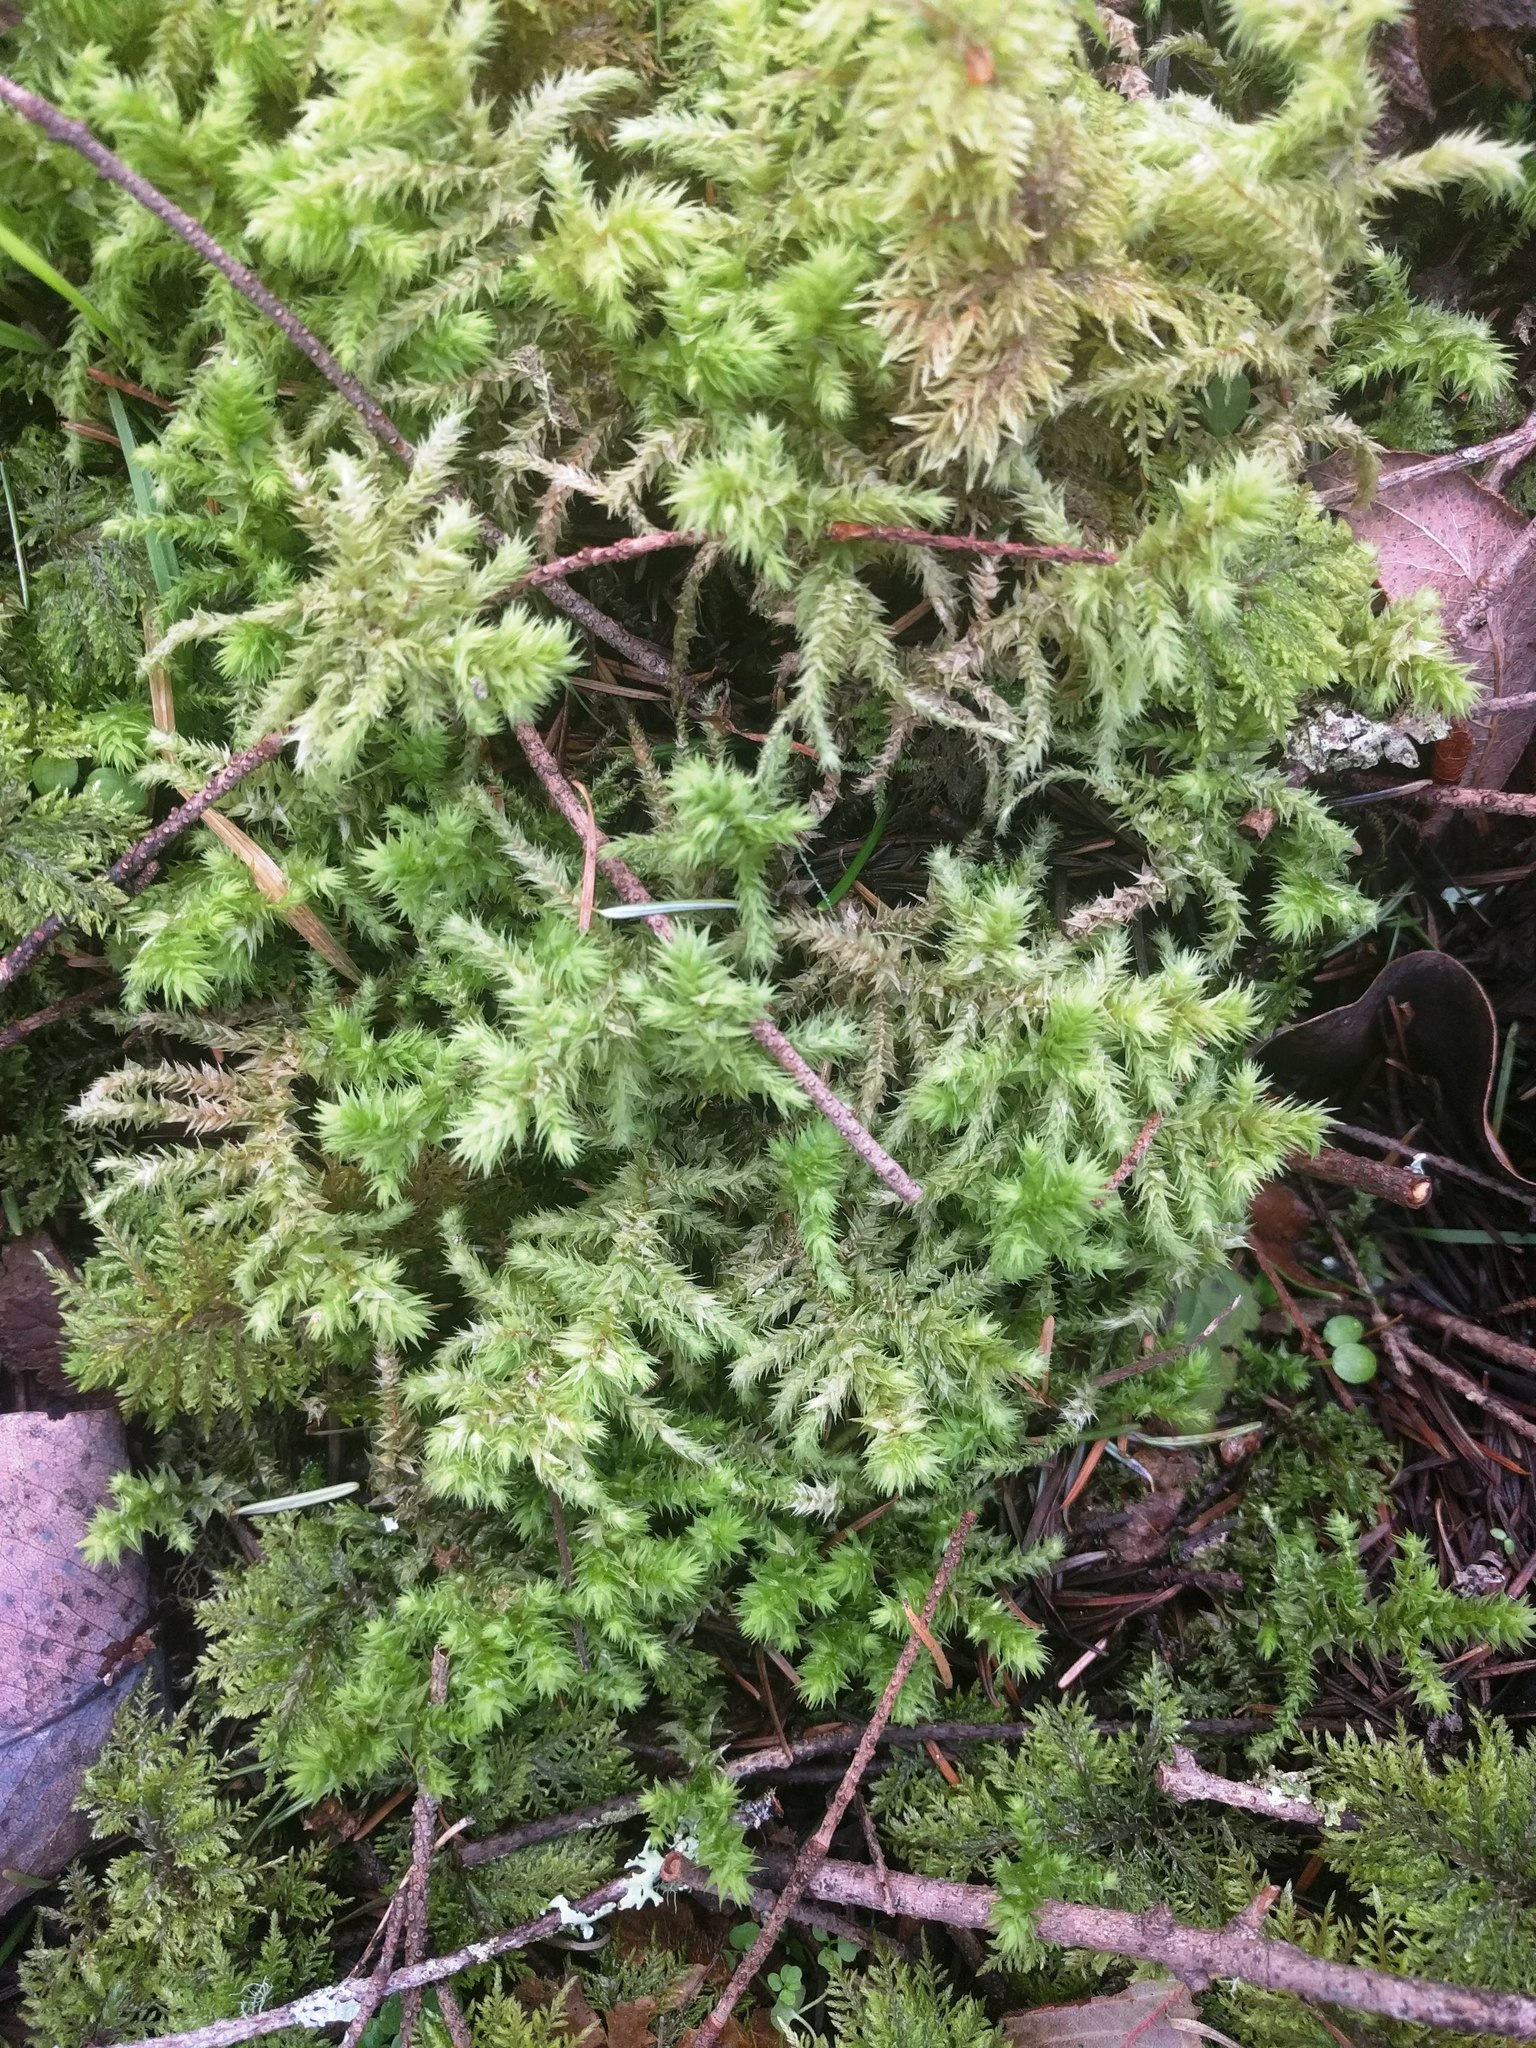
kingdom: Plantae
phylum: Bryophyta
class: Bryopsida
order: Hypnales
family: Hylocomiaceae
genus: Hylocomiadelphus
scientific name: Hylocomiadelphus triquetrus
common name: Rough goose neck moss
